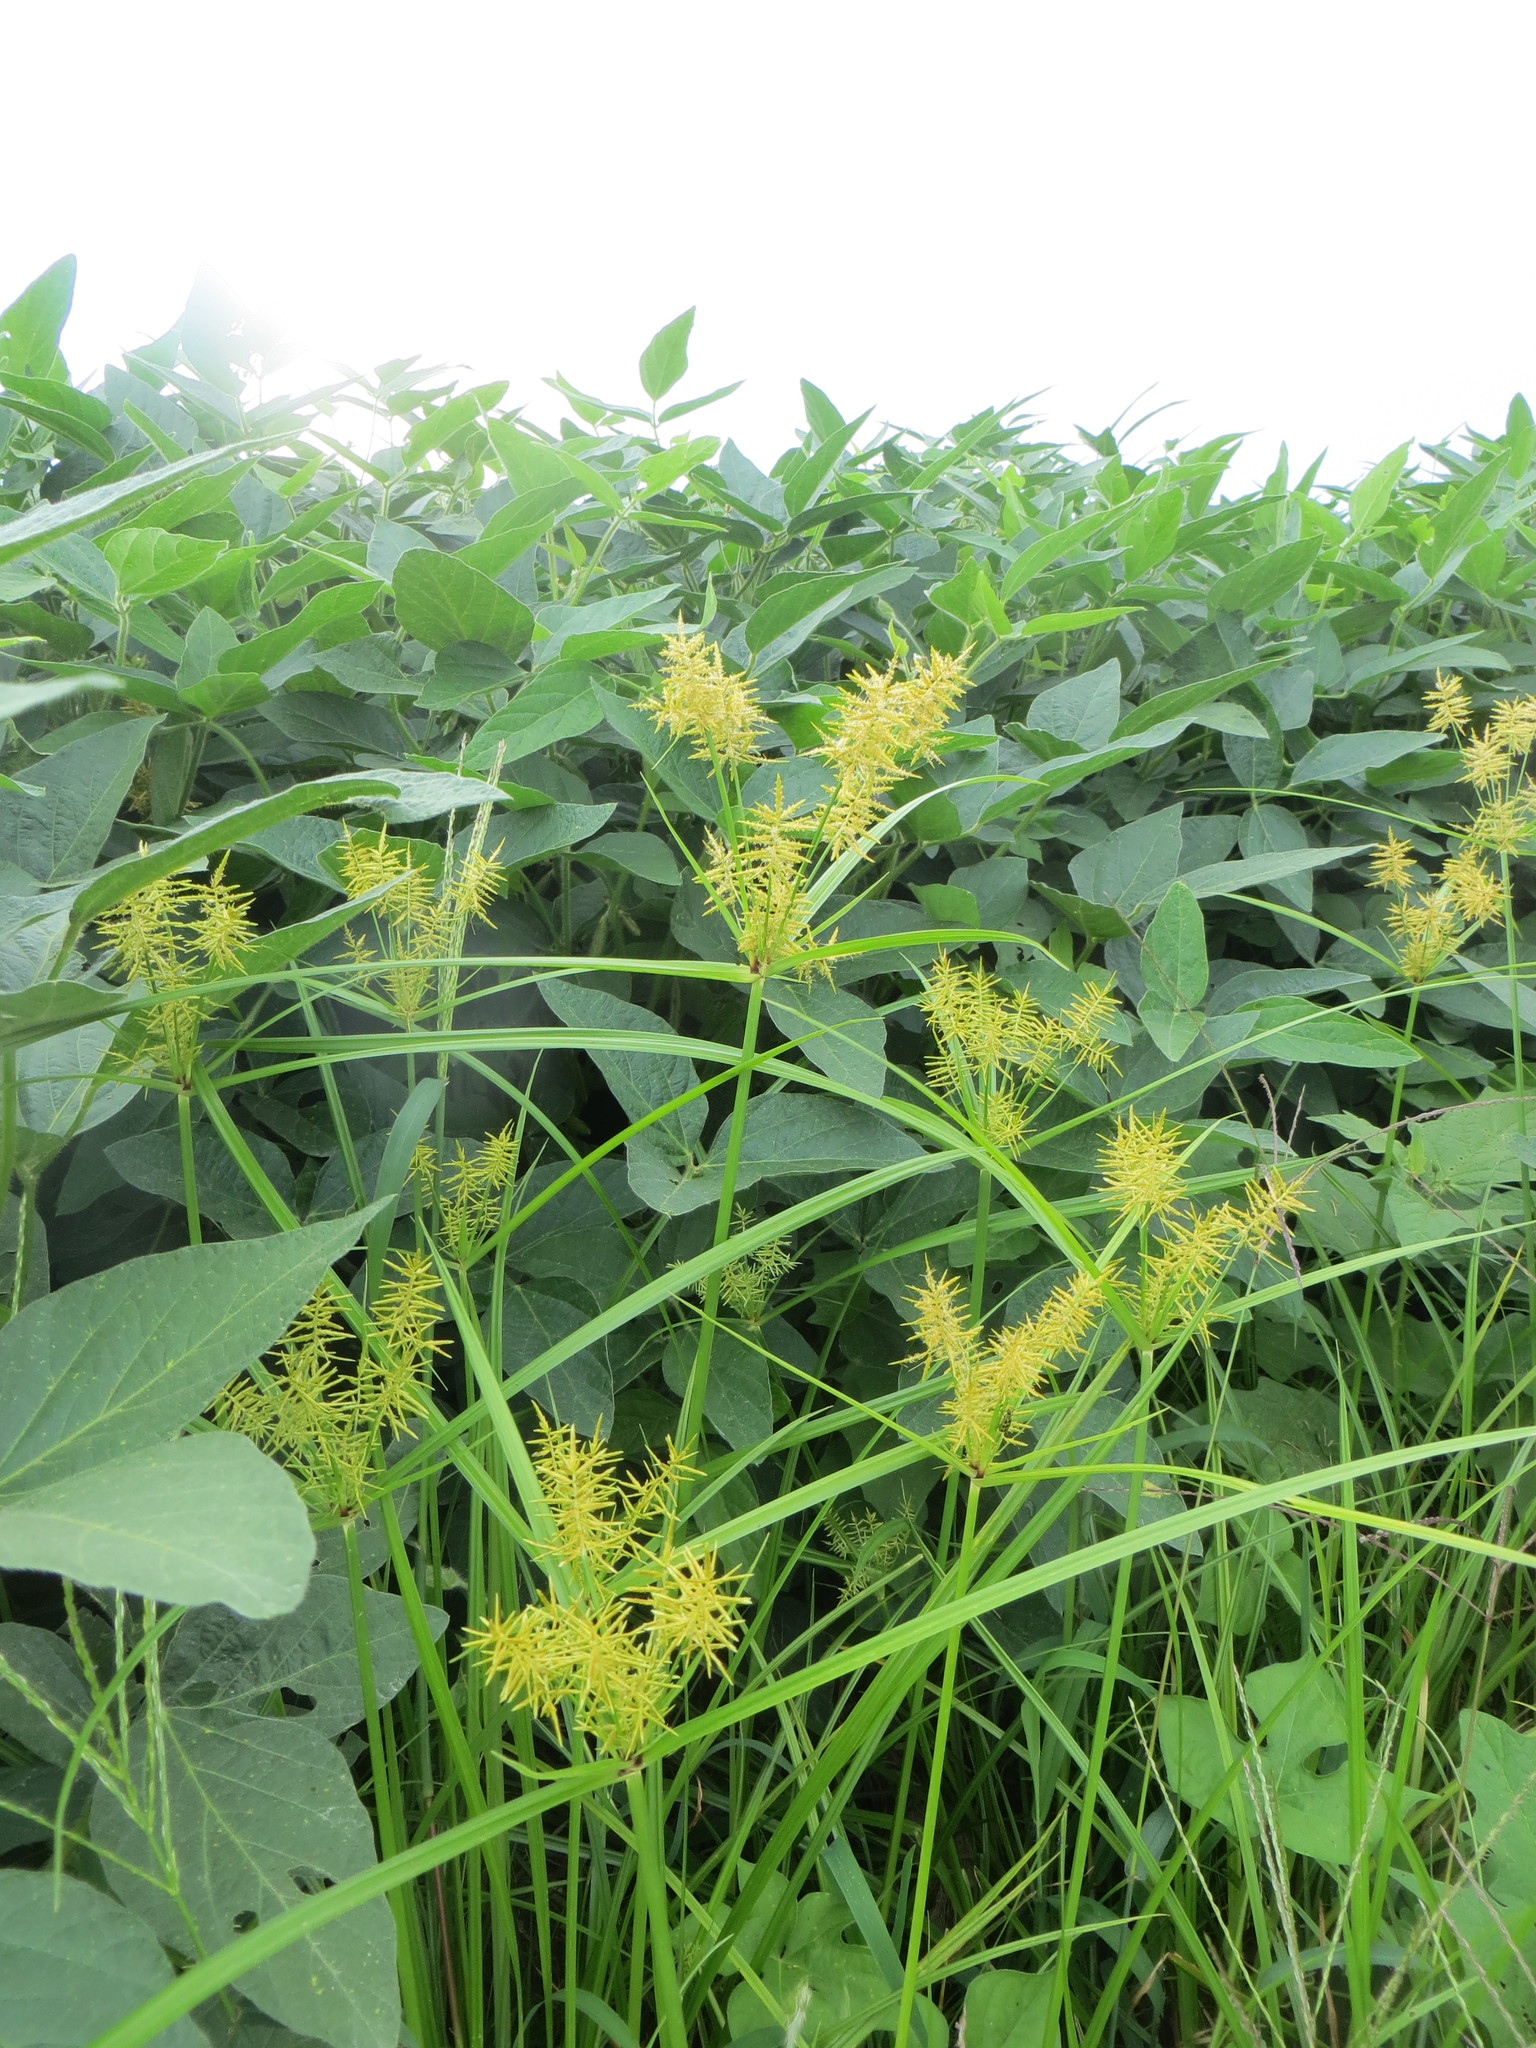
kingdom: Plantae
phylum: Tracheophyta
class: Liliopsida
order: Poales
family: Cyperaceae
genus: Cyperus
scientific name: Cyperus esculentus
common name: Yellow nutsedge
